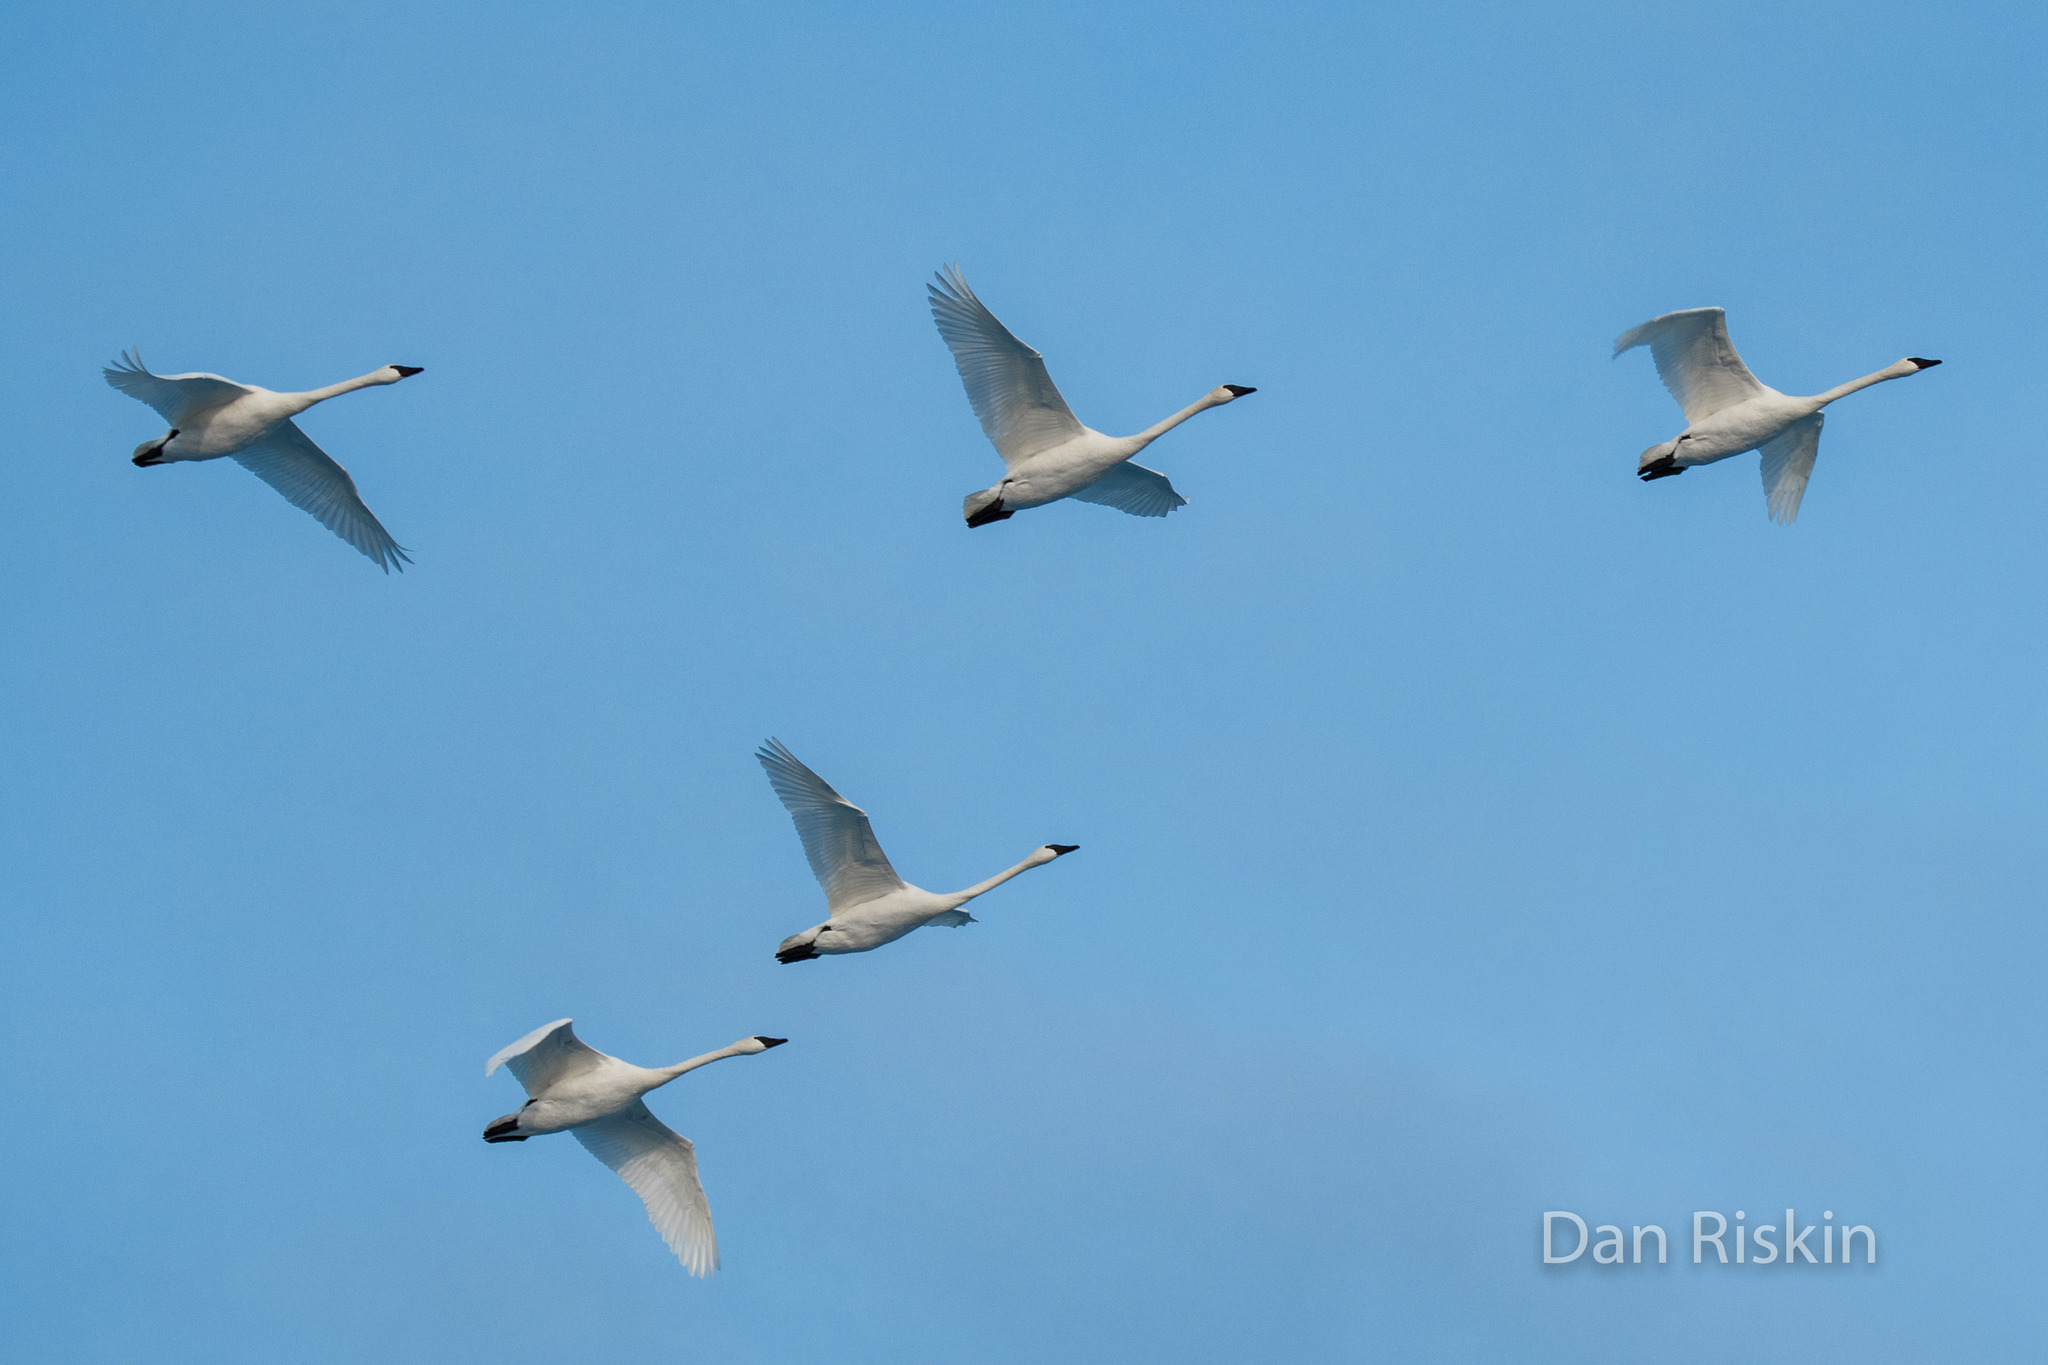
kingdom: Animalia
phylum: Chordata
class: Aves
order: Anseriformes
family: Anatidae
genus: Cygnus
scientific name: Cygnus buccinator
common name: Trumpeter swan
